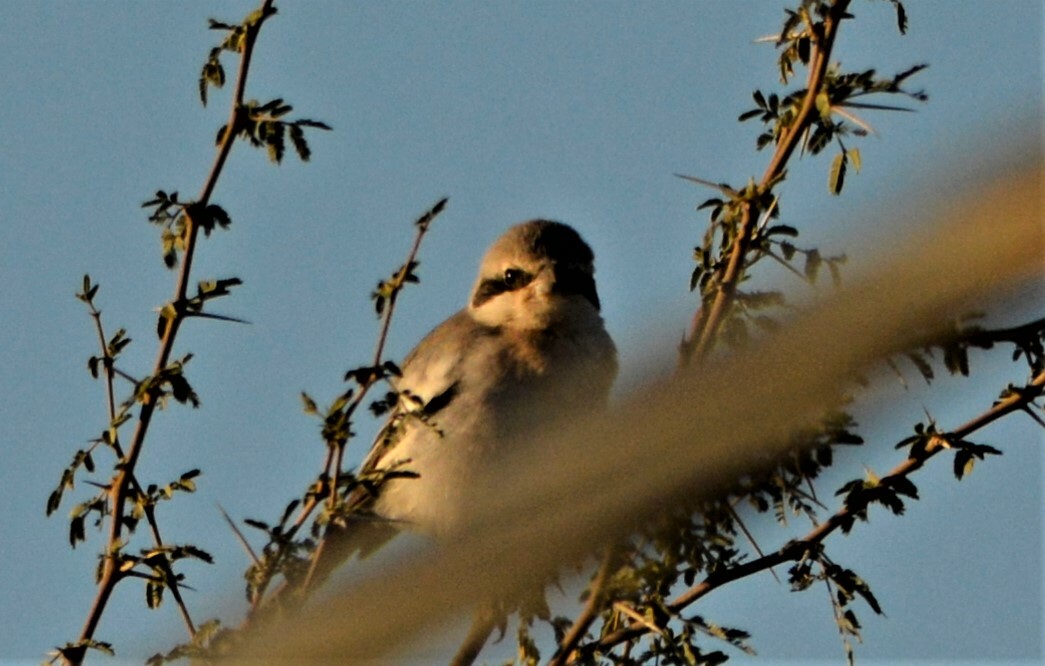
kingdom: Animalia
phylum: Chordata
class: Aves
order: Passeriformes
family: Laniidae
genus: Lanius
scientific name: Lanius excubitor
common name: Great grey shrike
